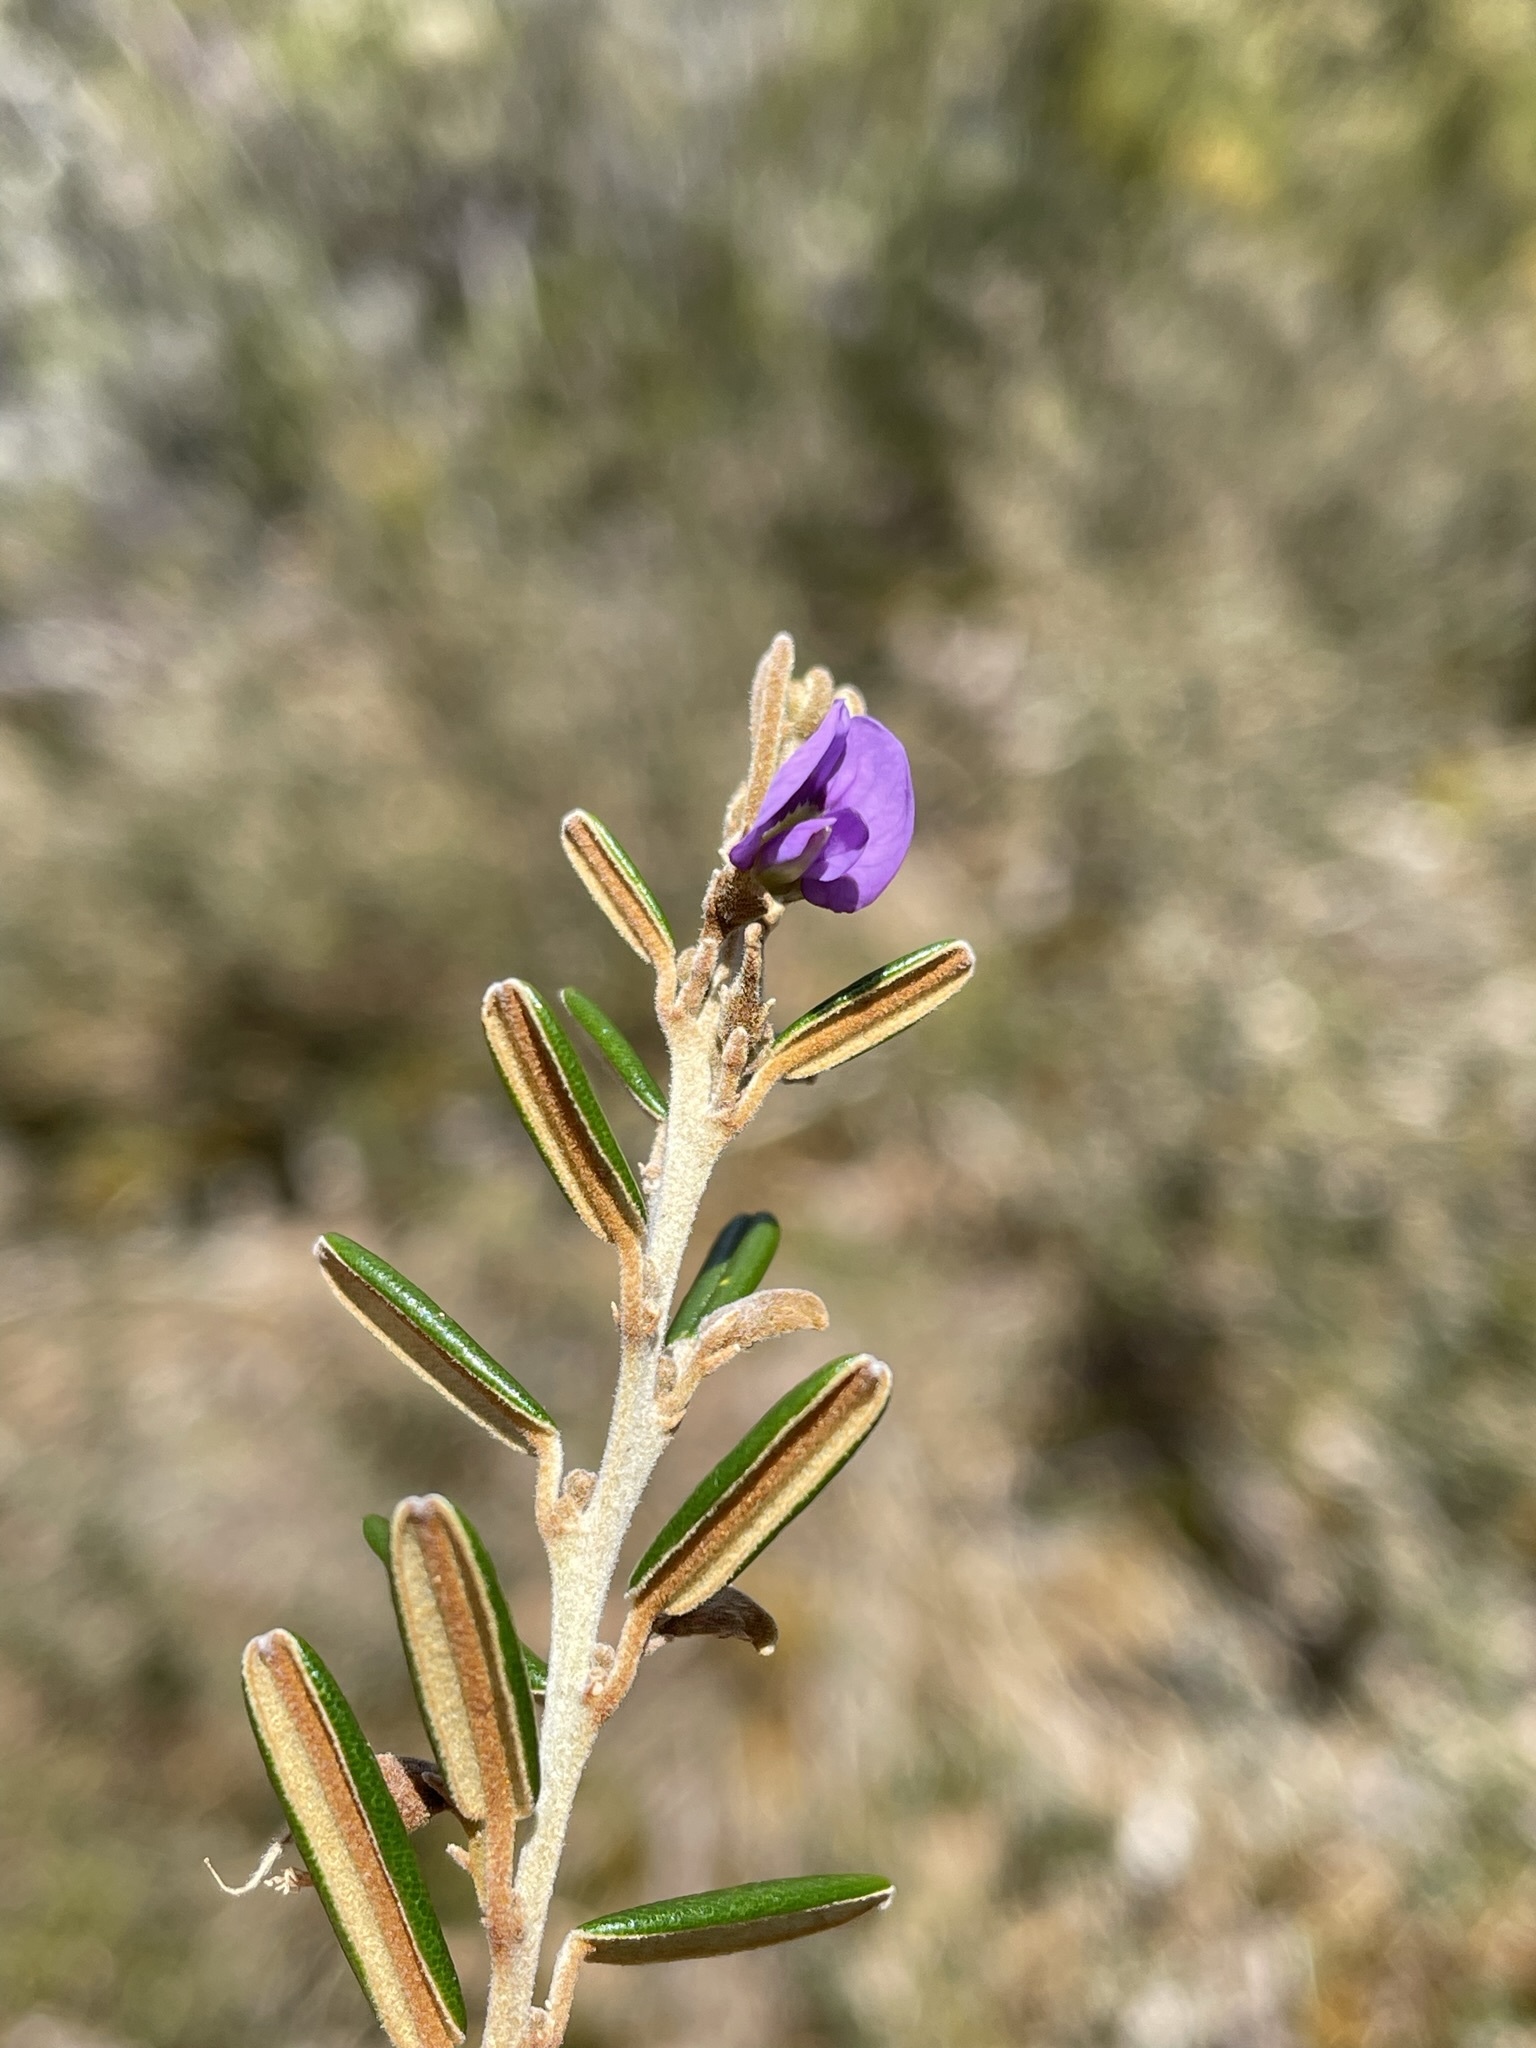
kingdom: Plantae
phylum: Tracheophyta
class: Magnoliopsida
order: Fabales
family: Fabaceae
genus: Hovea
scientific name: Hovea montana
